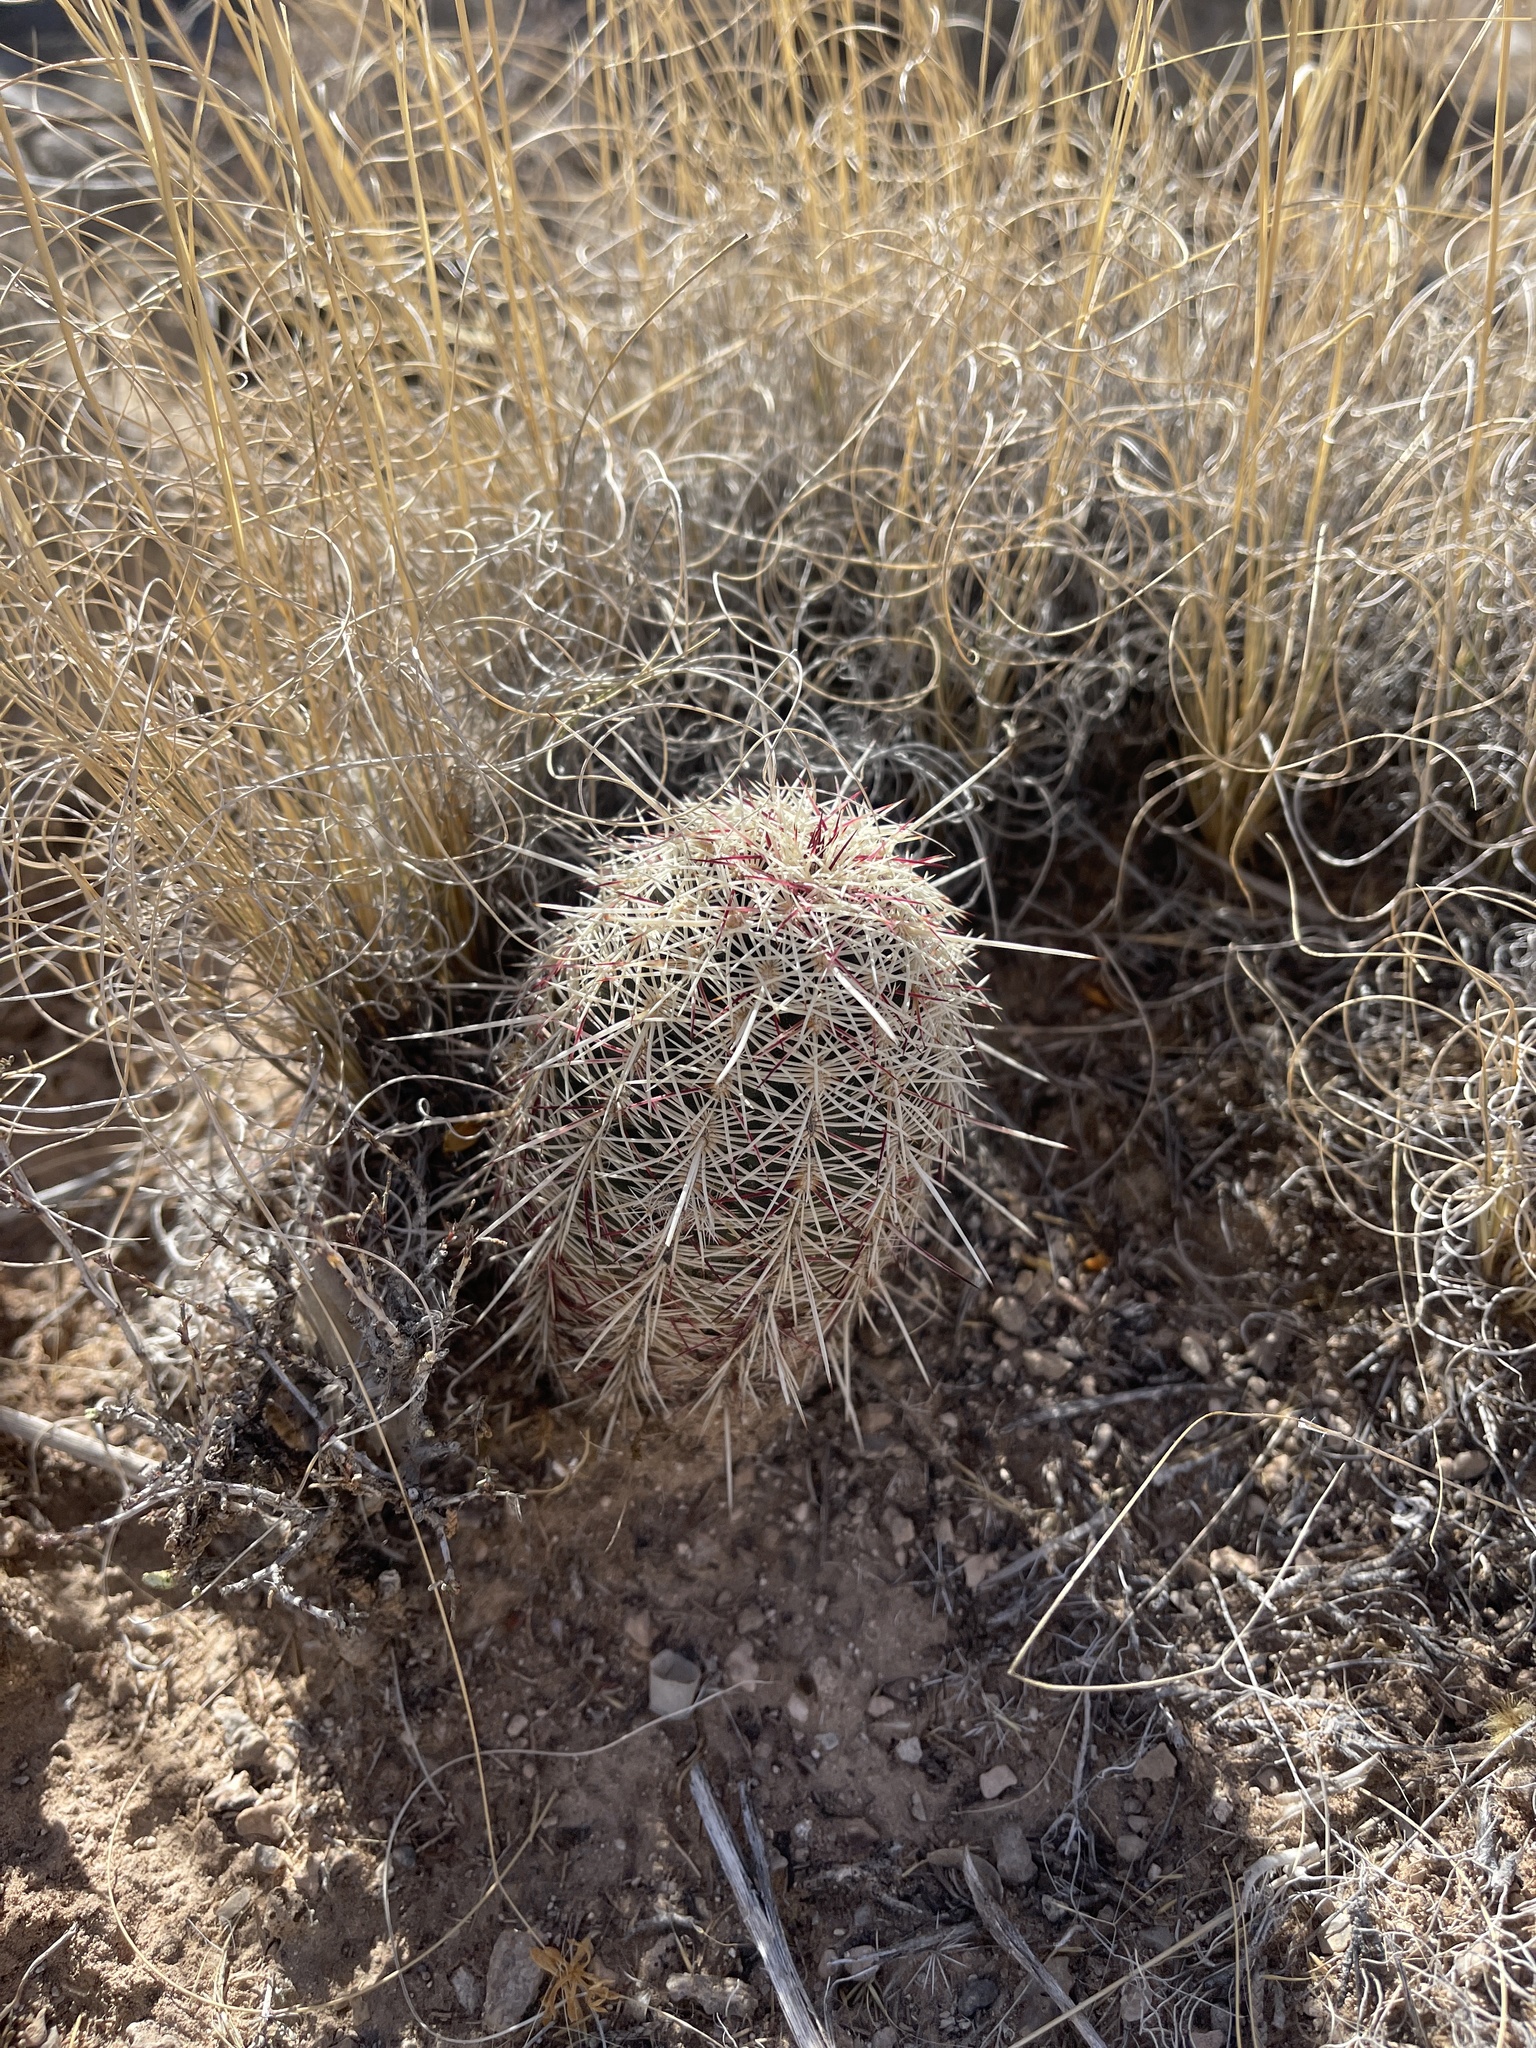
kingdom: Plantae
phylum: Tracheophyta
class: Magnoliopsida
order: Caryophyllales
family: Cactaceae
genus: Echinocereus
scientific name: Echinocereus viridiflorus
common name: Nylon hedgehog cactus
